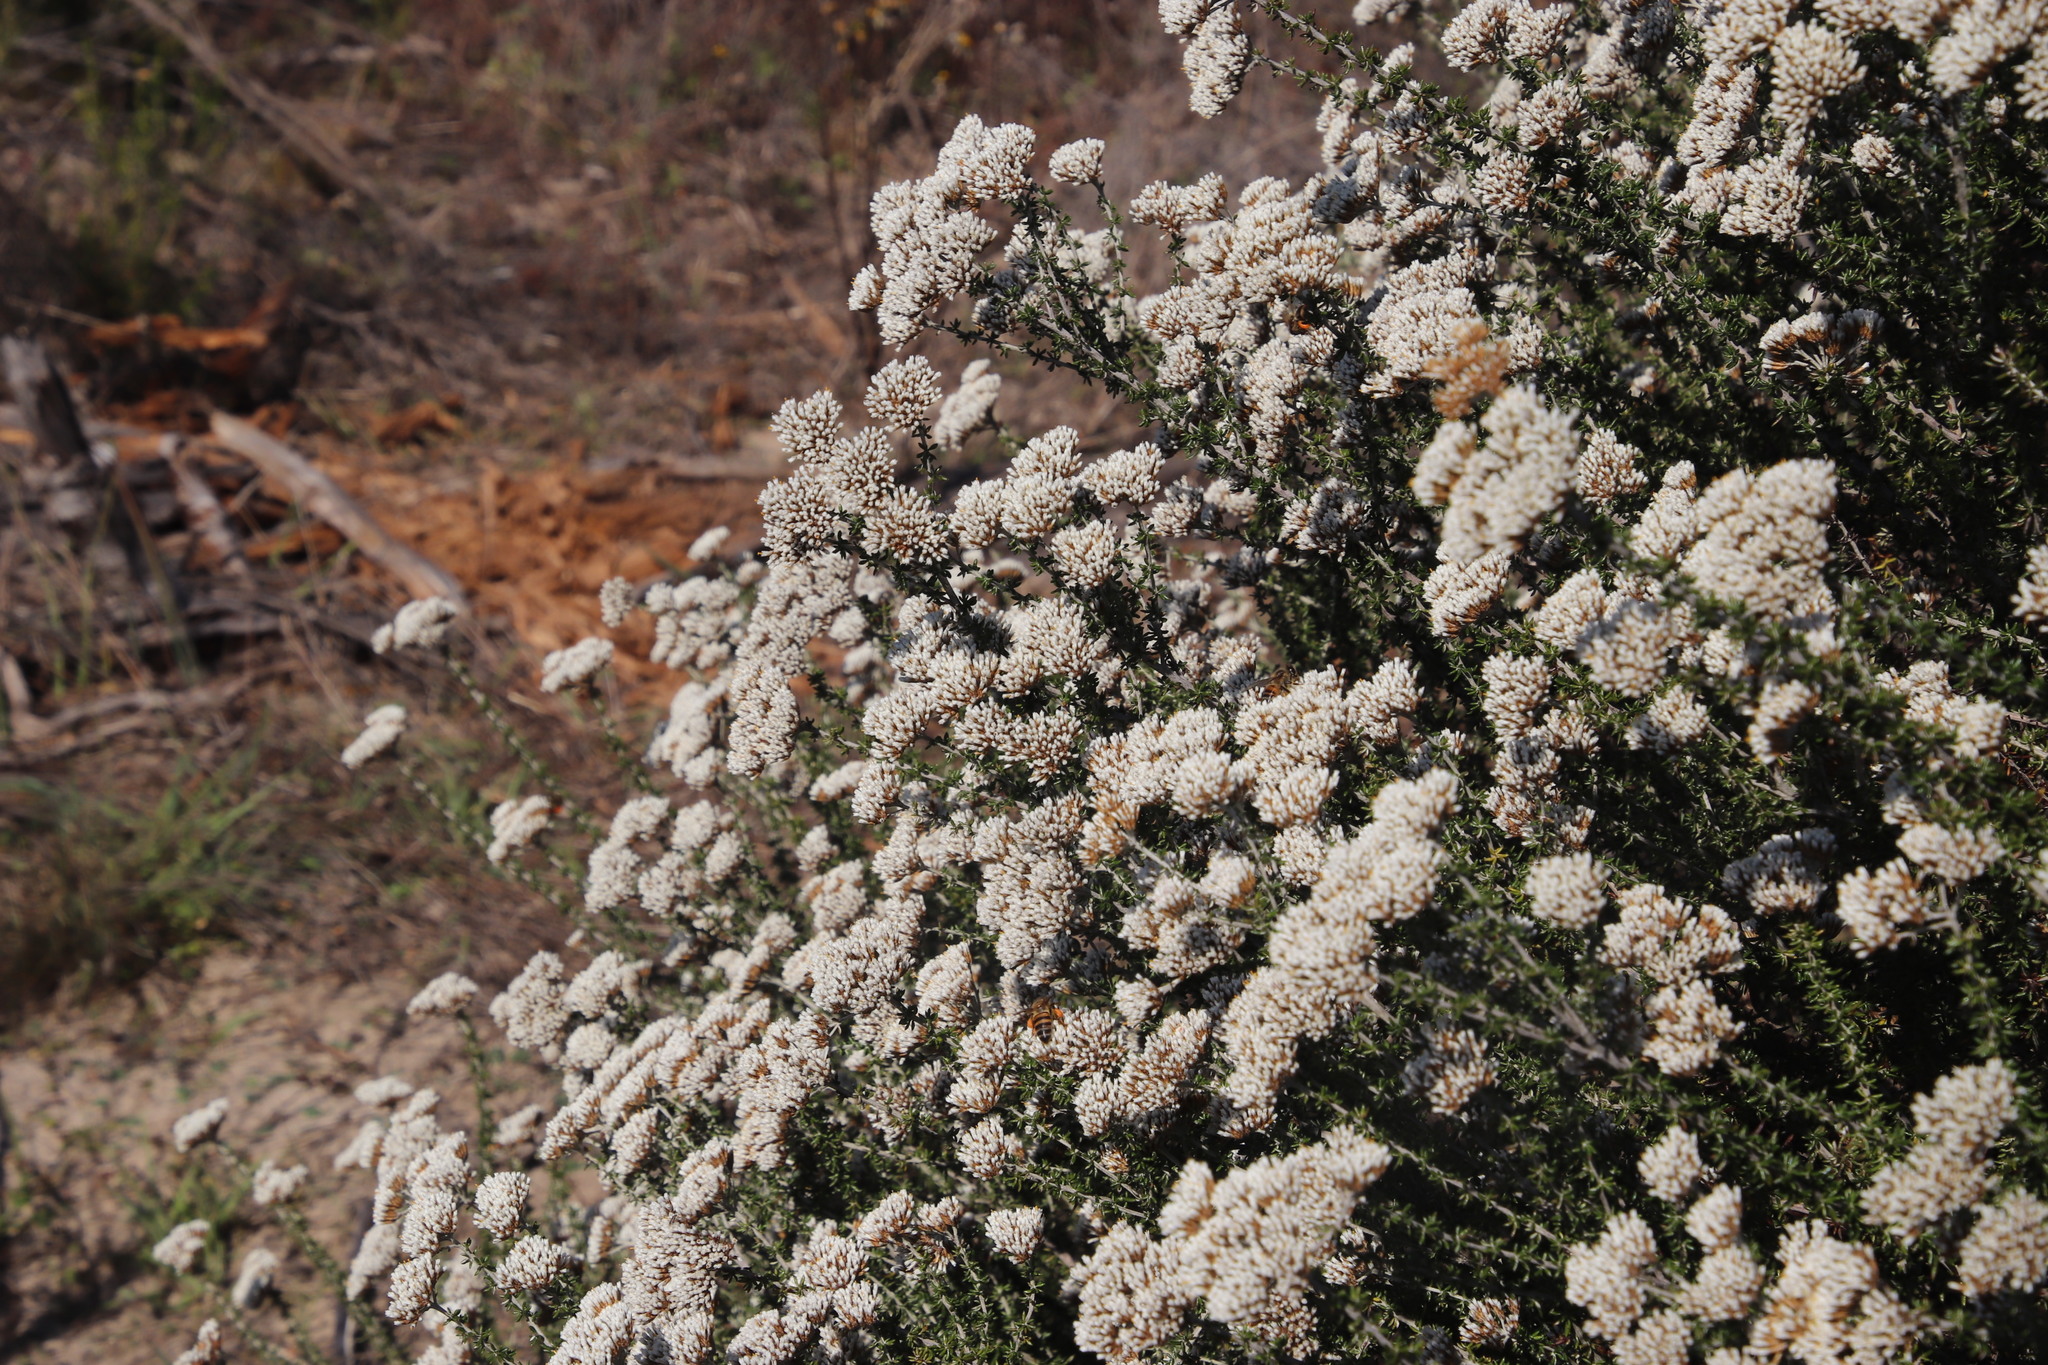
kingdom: Animalia
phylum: Arthropoda
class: Insecta
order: Hymenoptera
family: Apidae
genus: Apis
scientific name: Apis mellifera
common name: Honey bee
